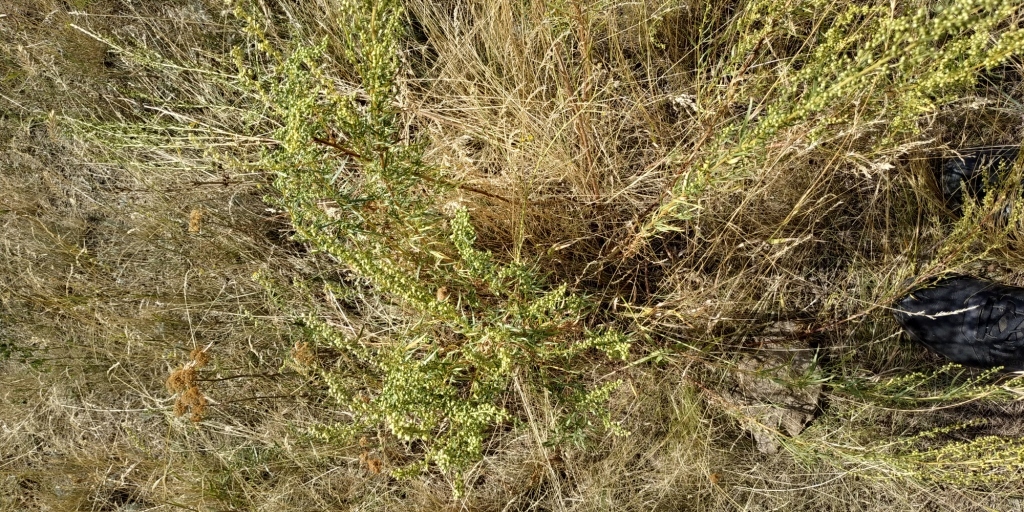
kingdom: Plantae
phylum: Tracheophyta
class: Magnoliopsida
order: Asterales
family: Asteraceae
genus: Artemisia
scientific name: Artemisia dracunculus
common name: Tarragon
